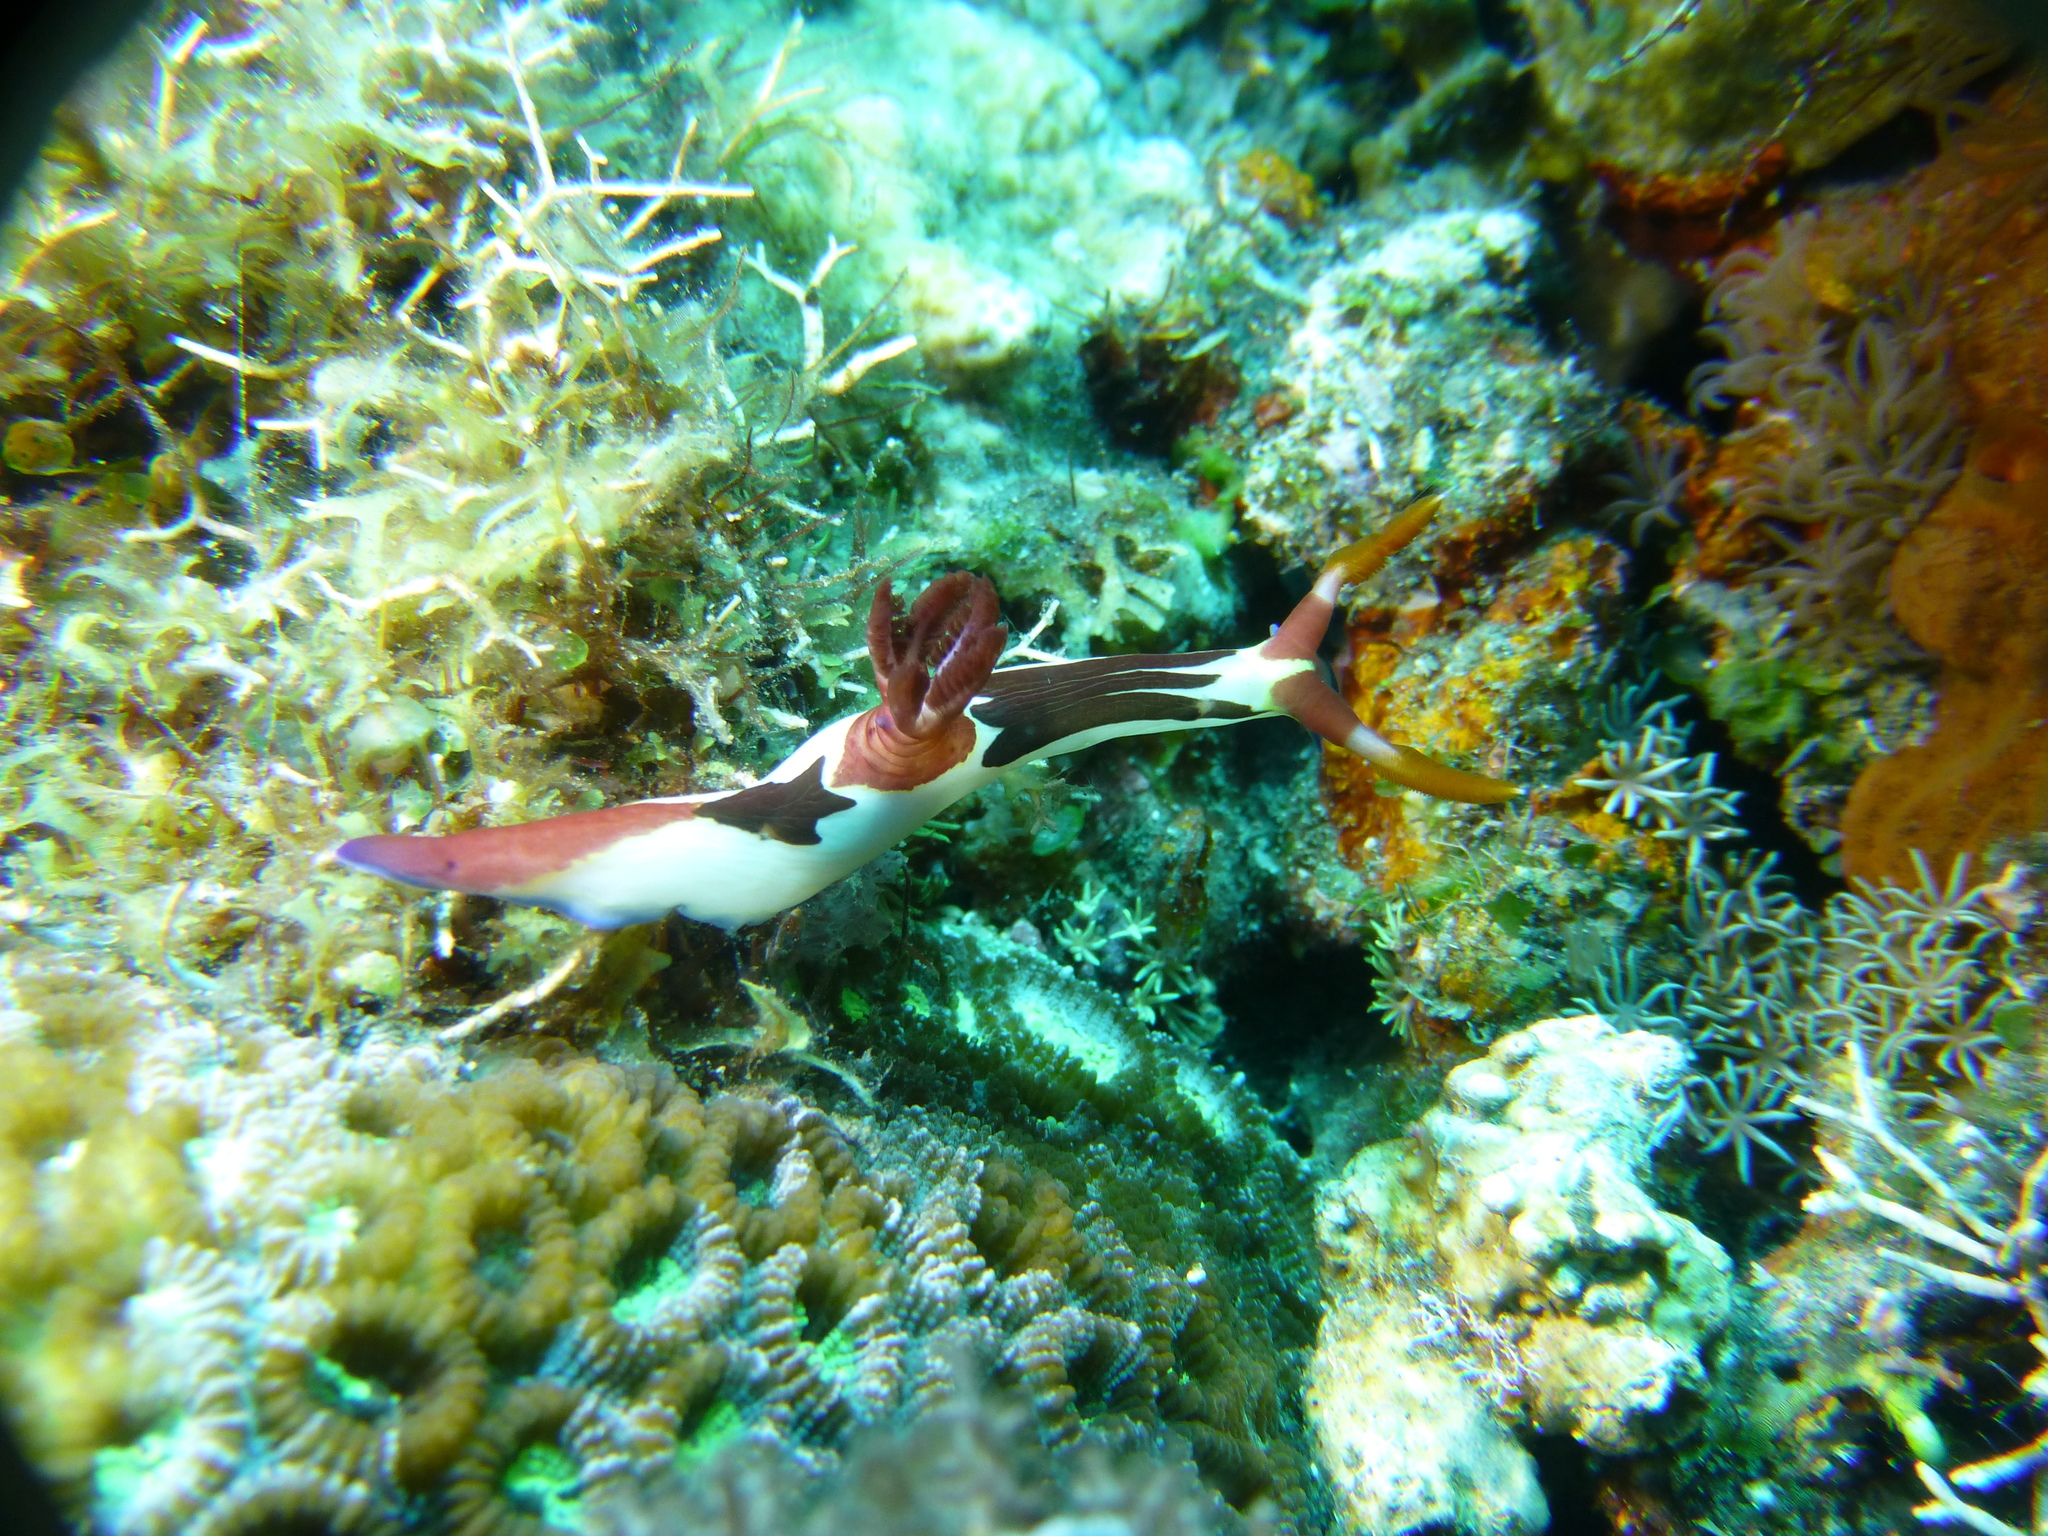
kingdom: Animalia
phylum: Mollusca
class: Gastropoda
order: Nudibranchia
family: Polyceridae
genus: Nembrotha
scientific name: Nembrotha chamberlaini
